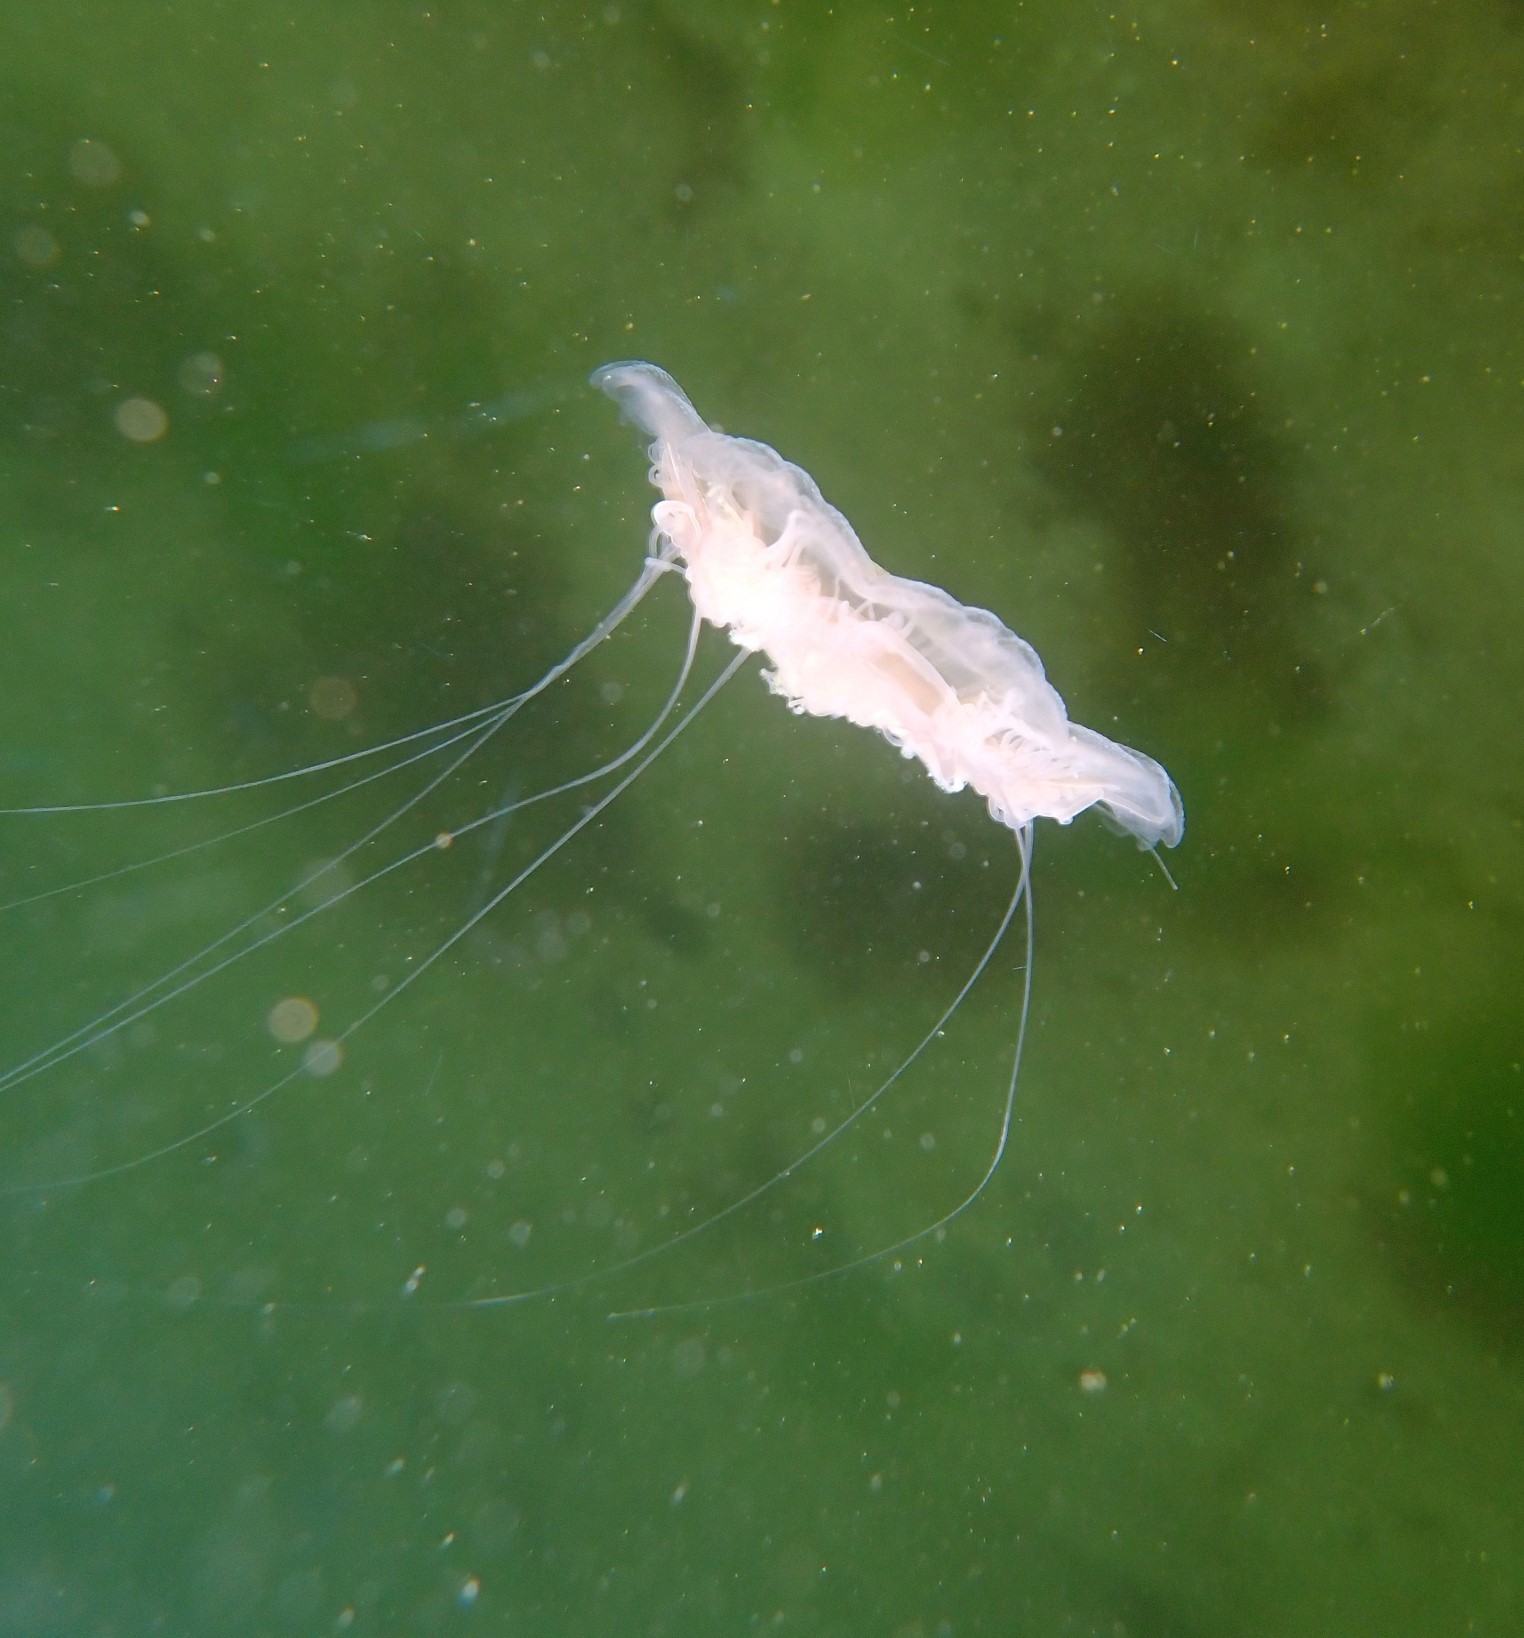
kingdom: Animalia
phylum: Cnidaria
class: Scyphozoa
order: Semaeostomeae
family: Cyaneidae
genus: Cyanea
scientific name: Cyanea capillata
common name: Lion's mane jellyfish
